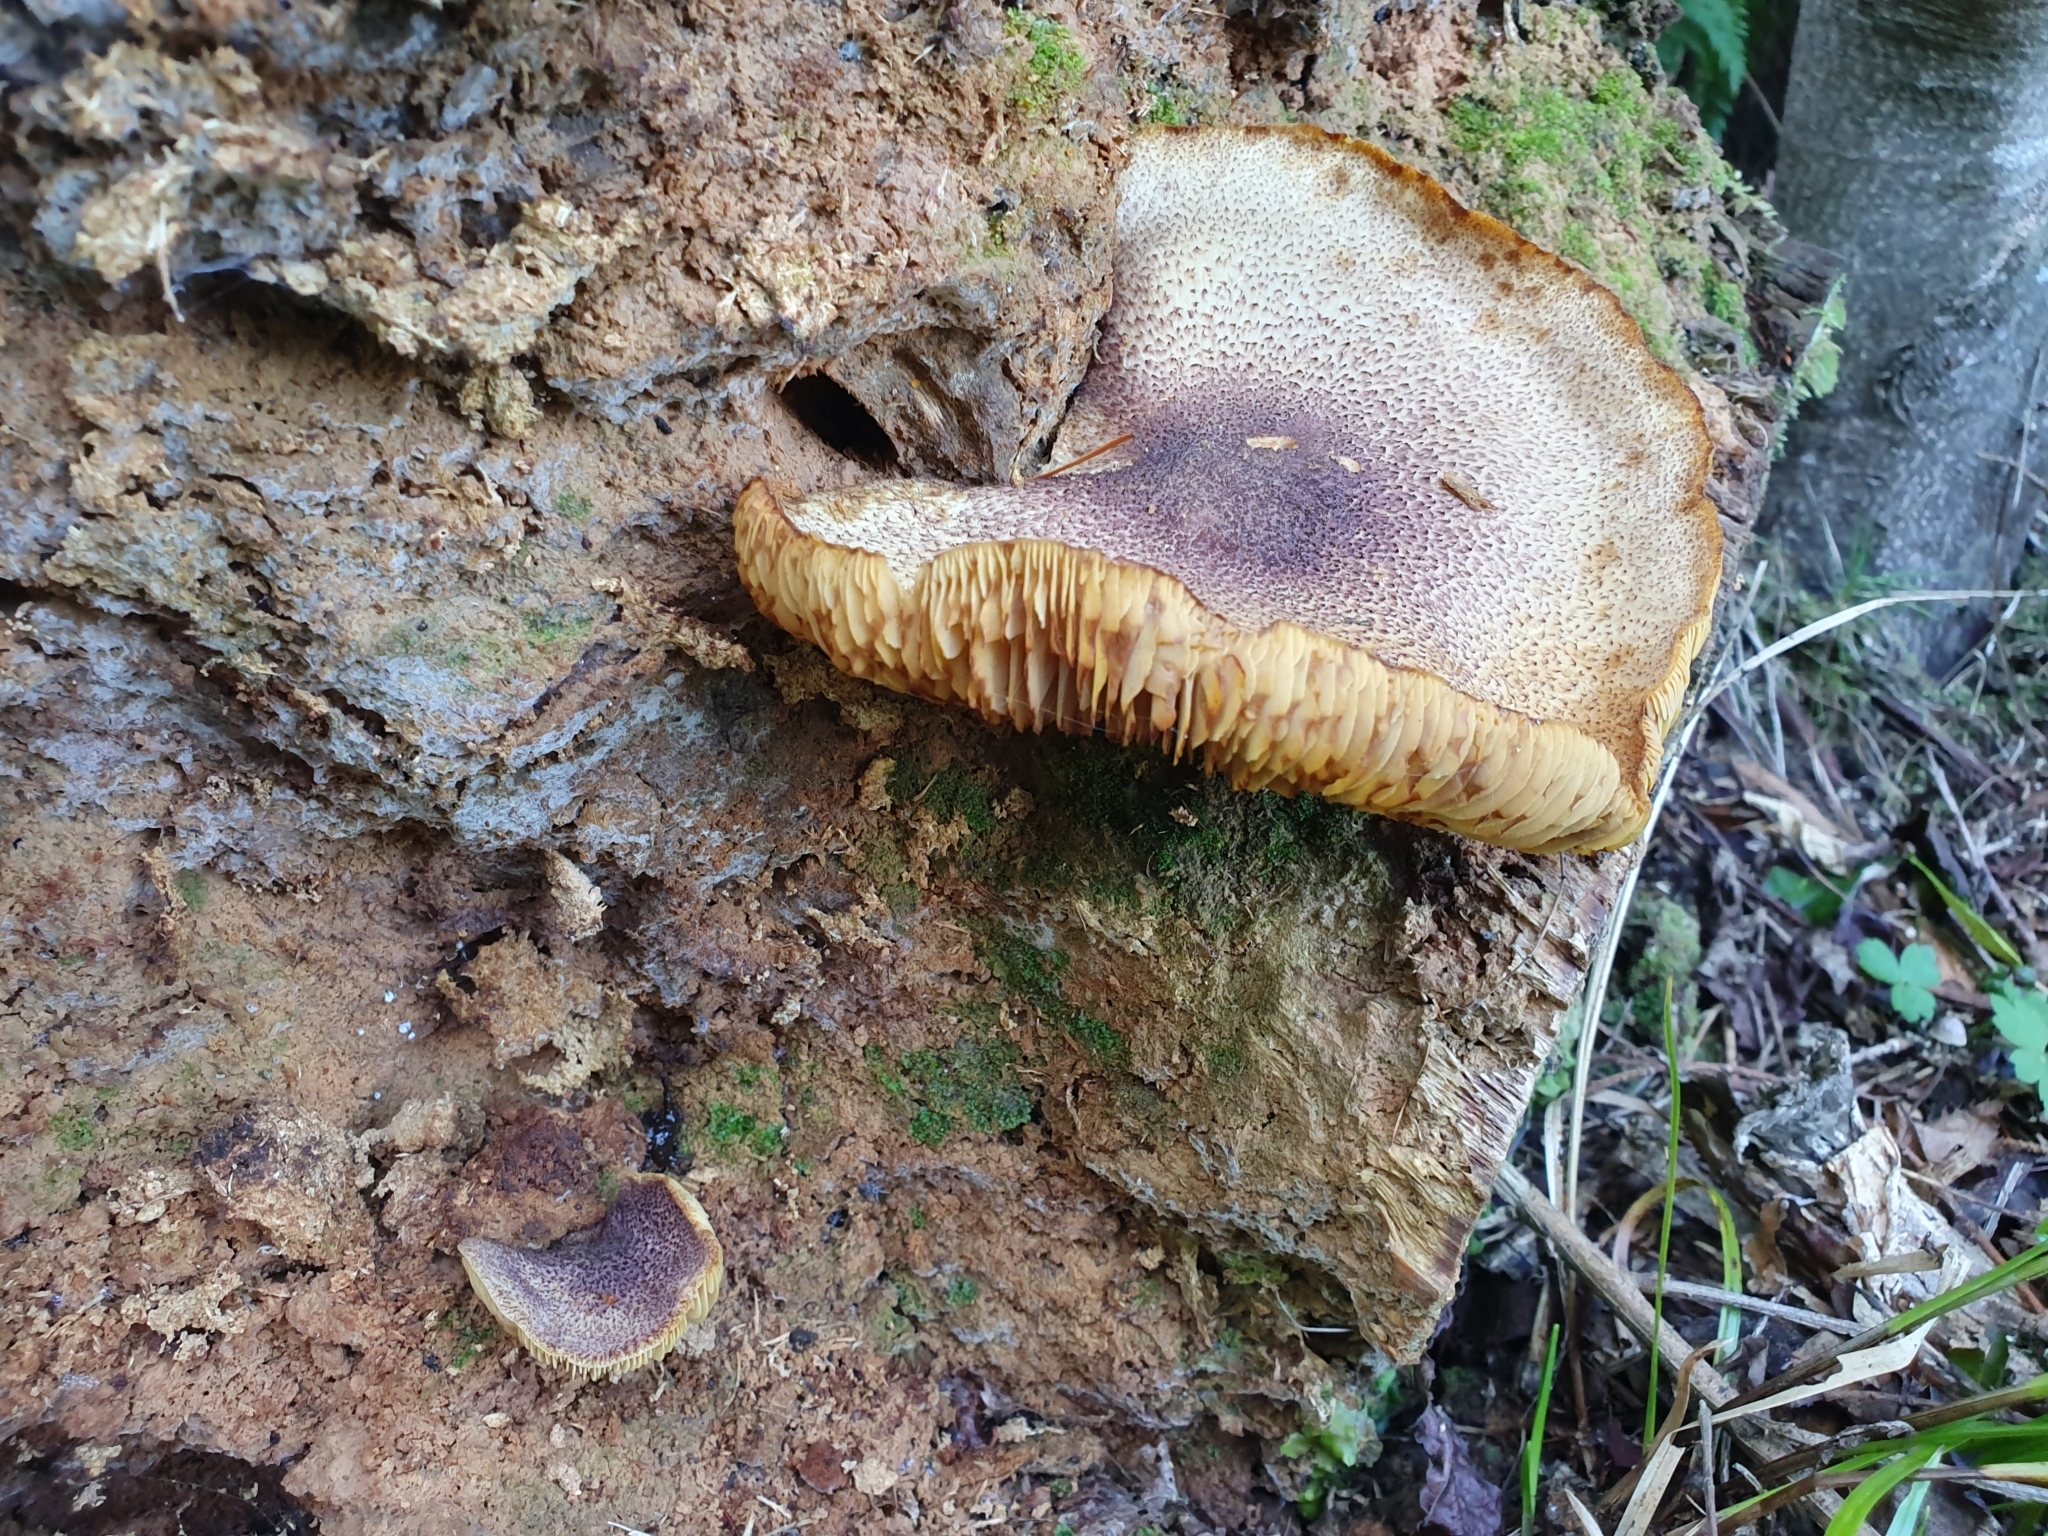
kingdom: Fungi
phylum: Basidiomycota
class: Agaricomycetes
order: Agaricales
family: Tricholomataceae
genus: Tricholomopsis
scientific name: Tricholomopsis ornaticeps
